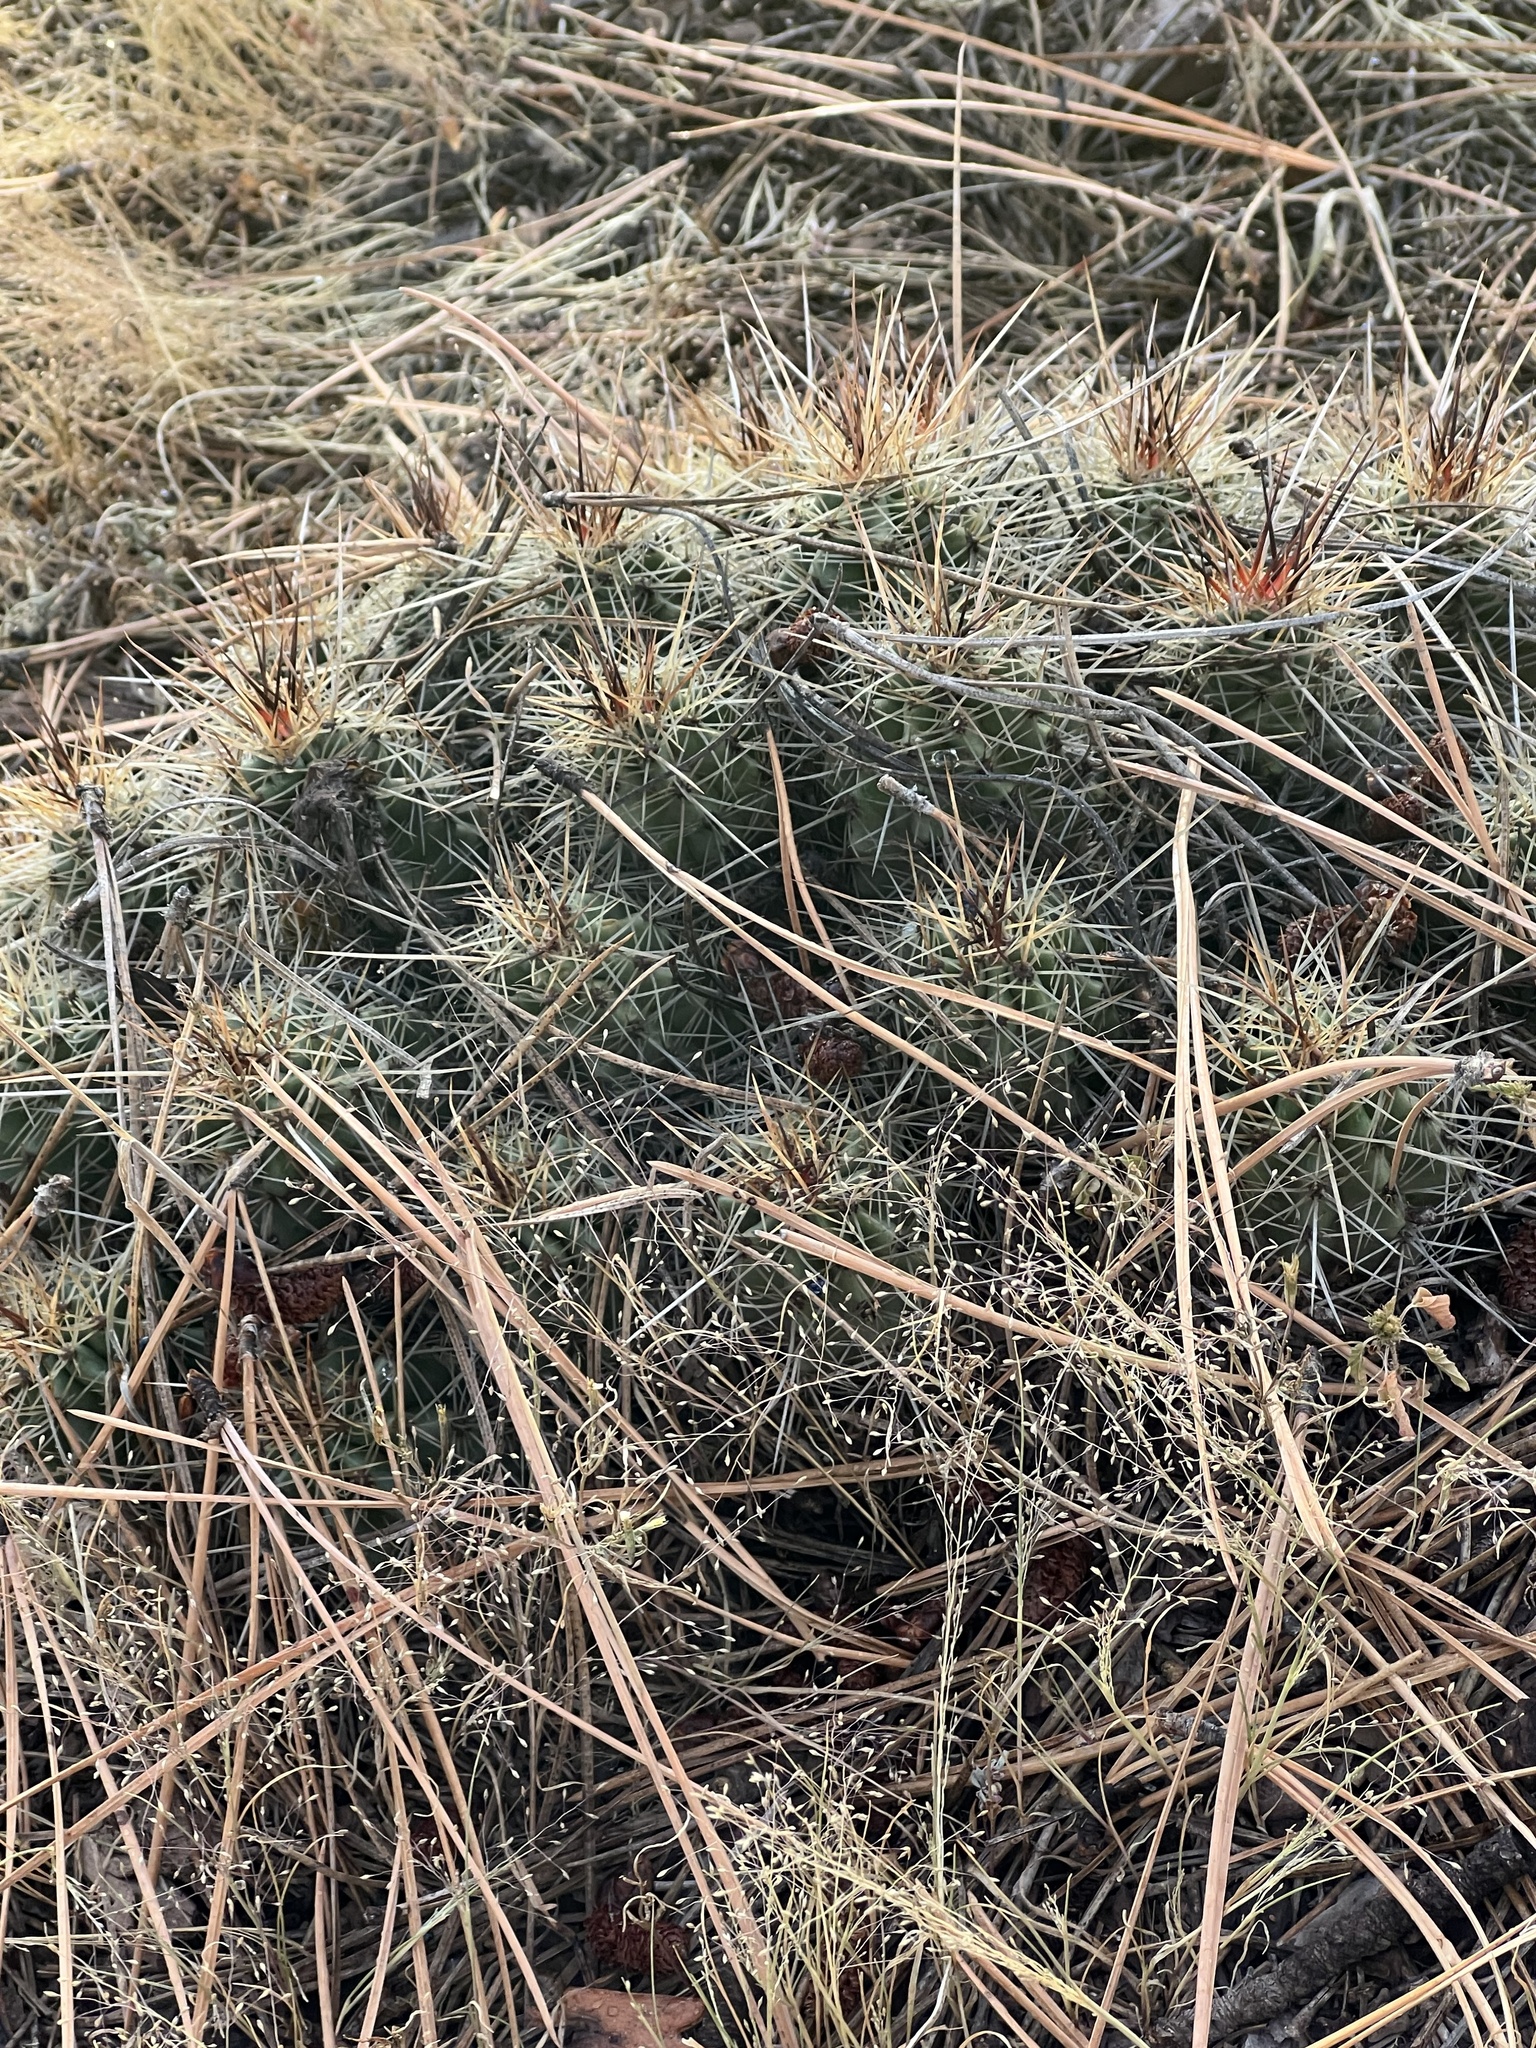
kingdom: Plantae
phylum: Tracheophyta
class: Magnoliopsida
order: Caryophyllales
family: Cactaceae
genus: Echinocereus
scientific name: Echinocereus bakeri
